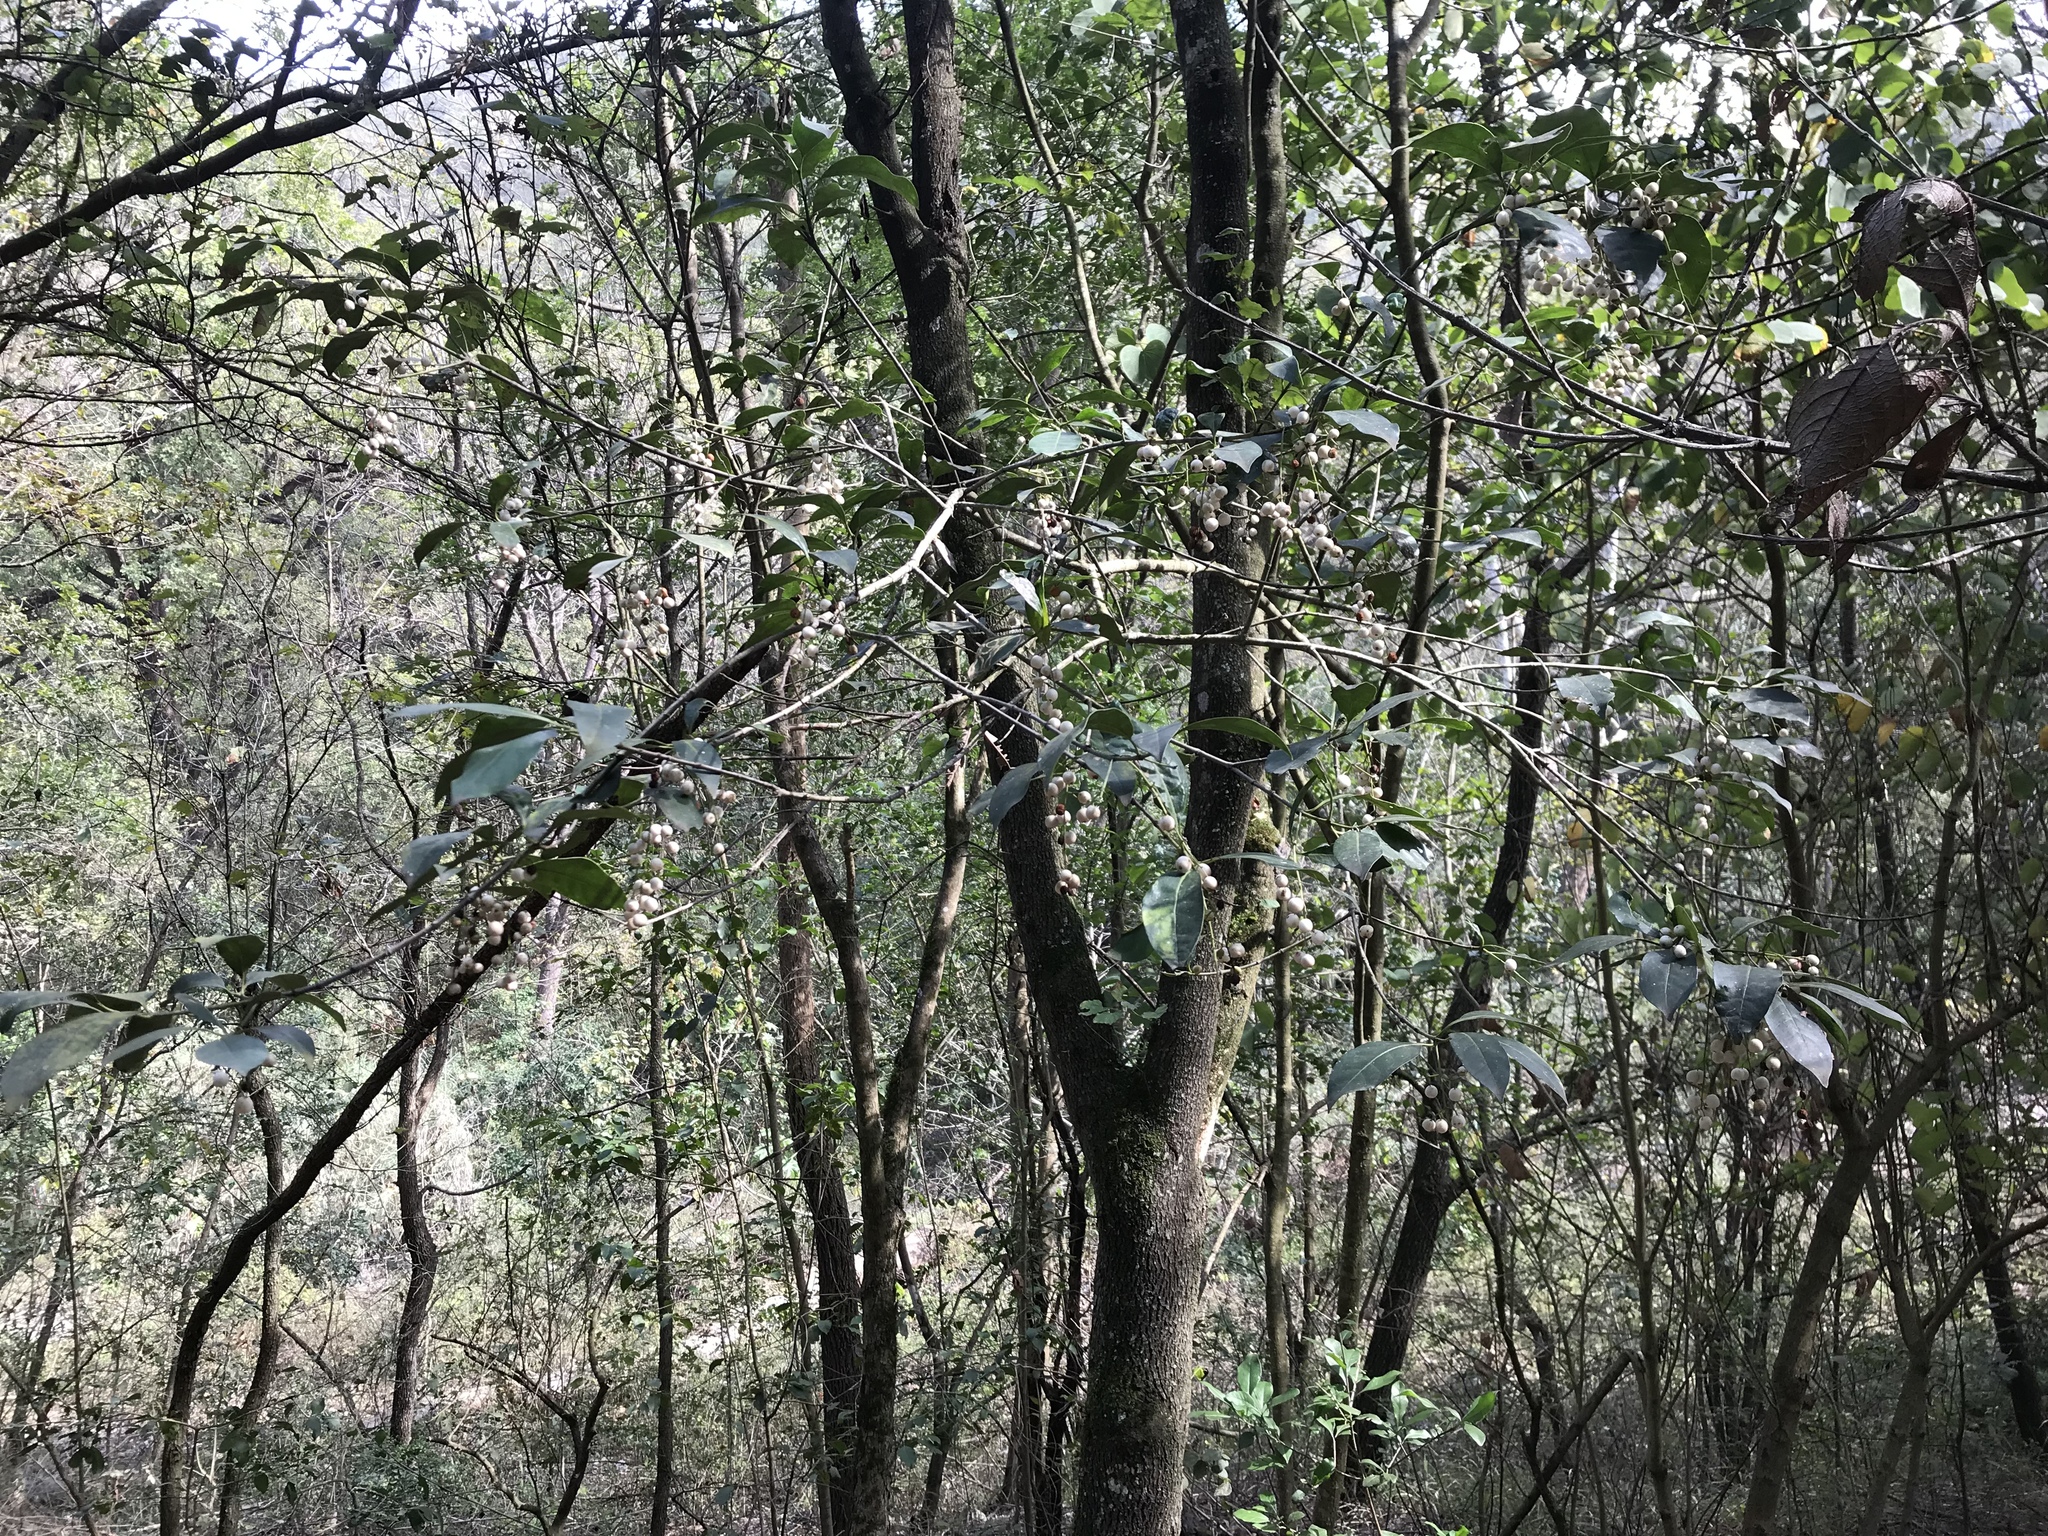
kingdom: Plantae
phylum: Tracheophyta
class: Magnoliopsida
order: Gentianales
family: Rubiaceae
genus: Chiococca
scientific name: Chiococca pachyphylla
